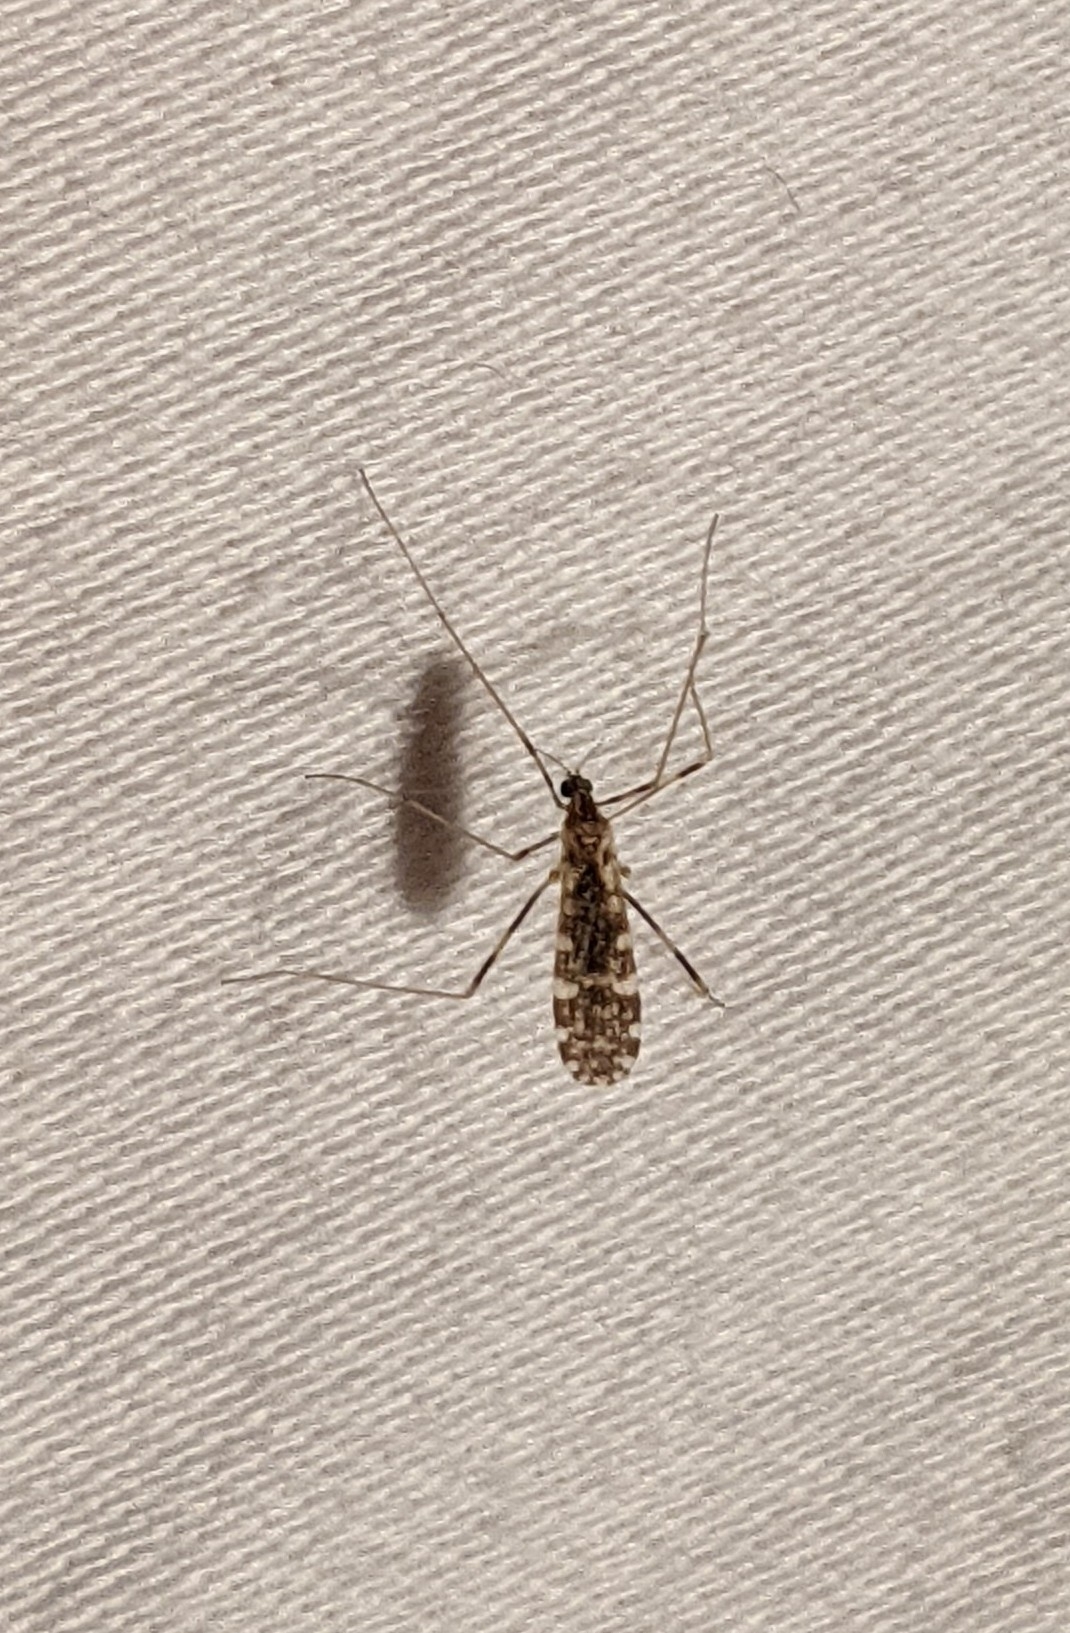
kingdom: Animalia
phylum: Arthropoda
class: Insecta
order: Diptera
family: Limoniidae
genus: Erioptera
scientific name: Erioptera caliptera
